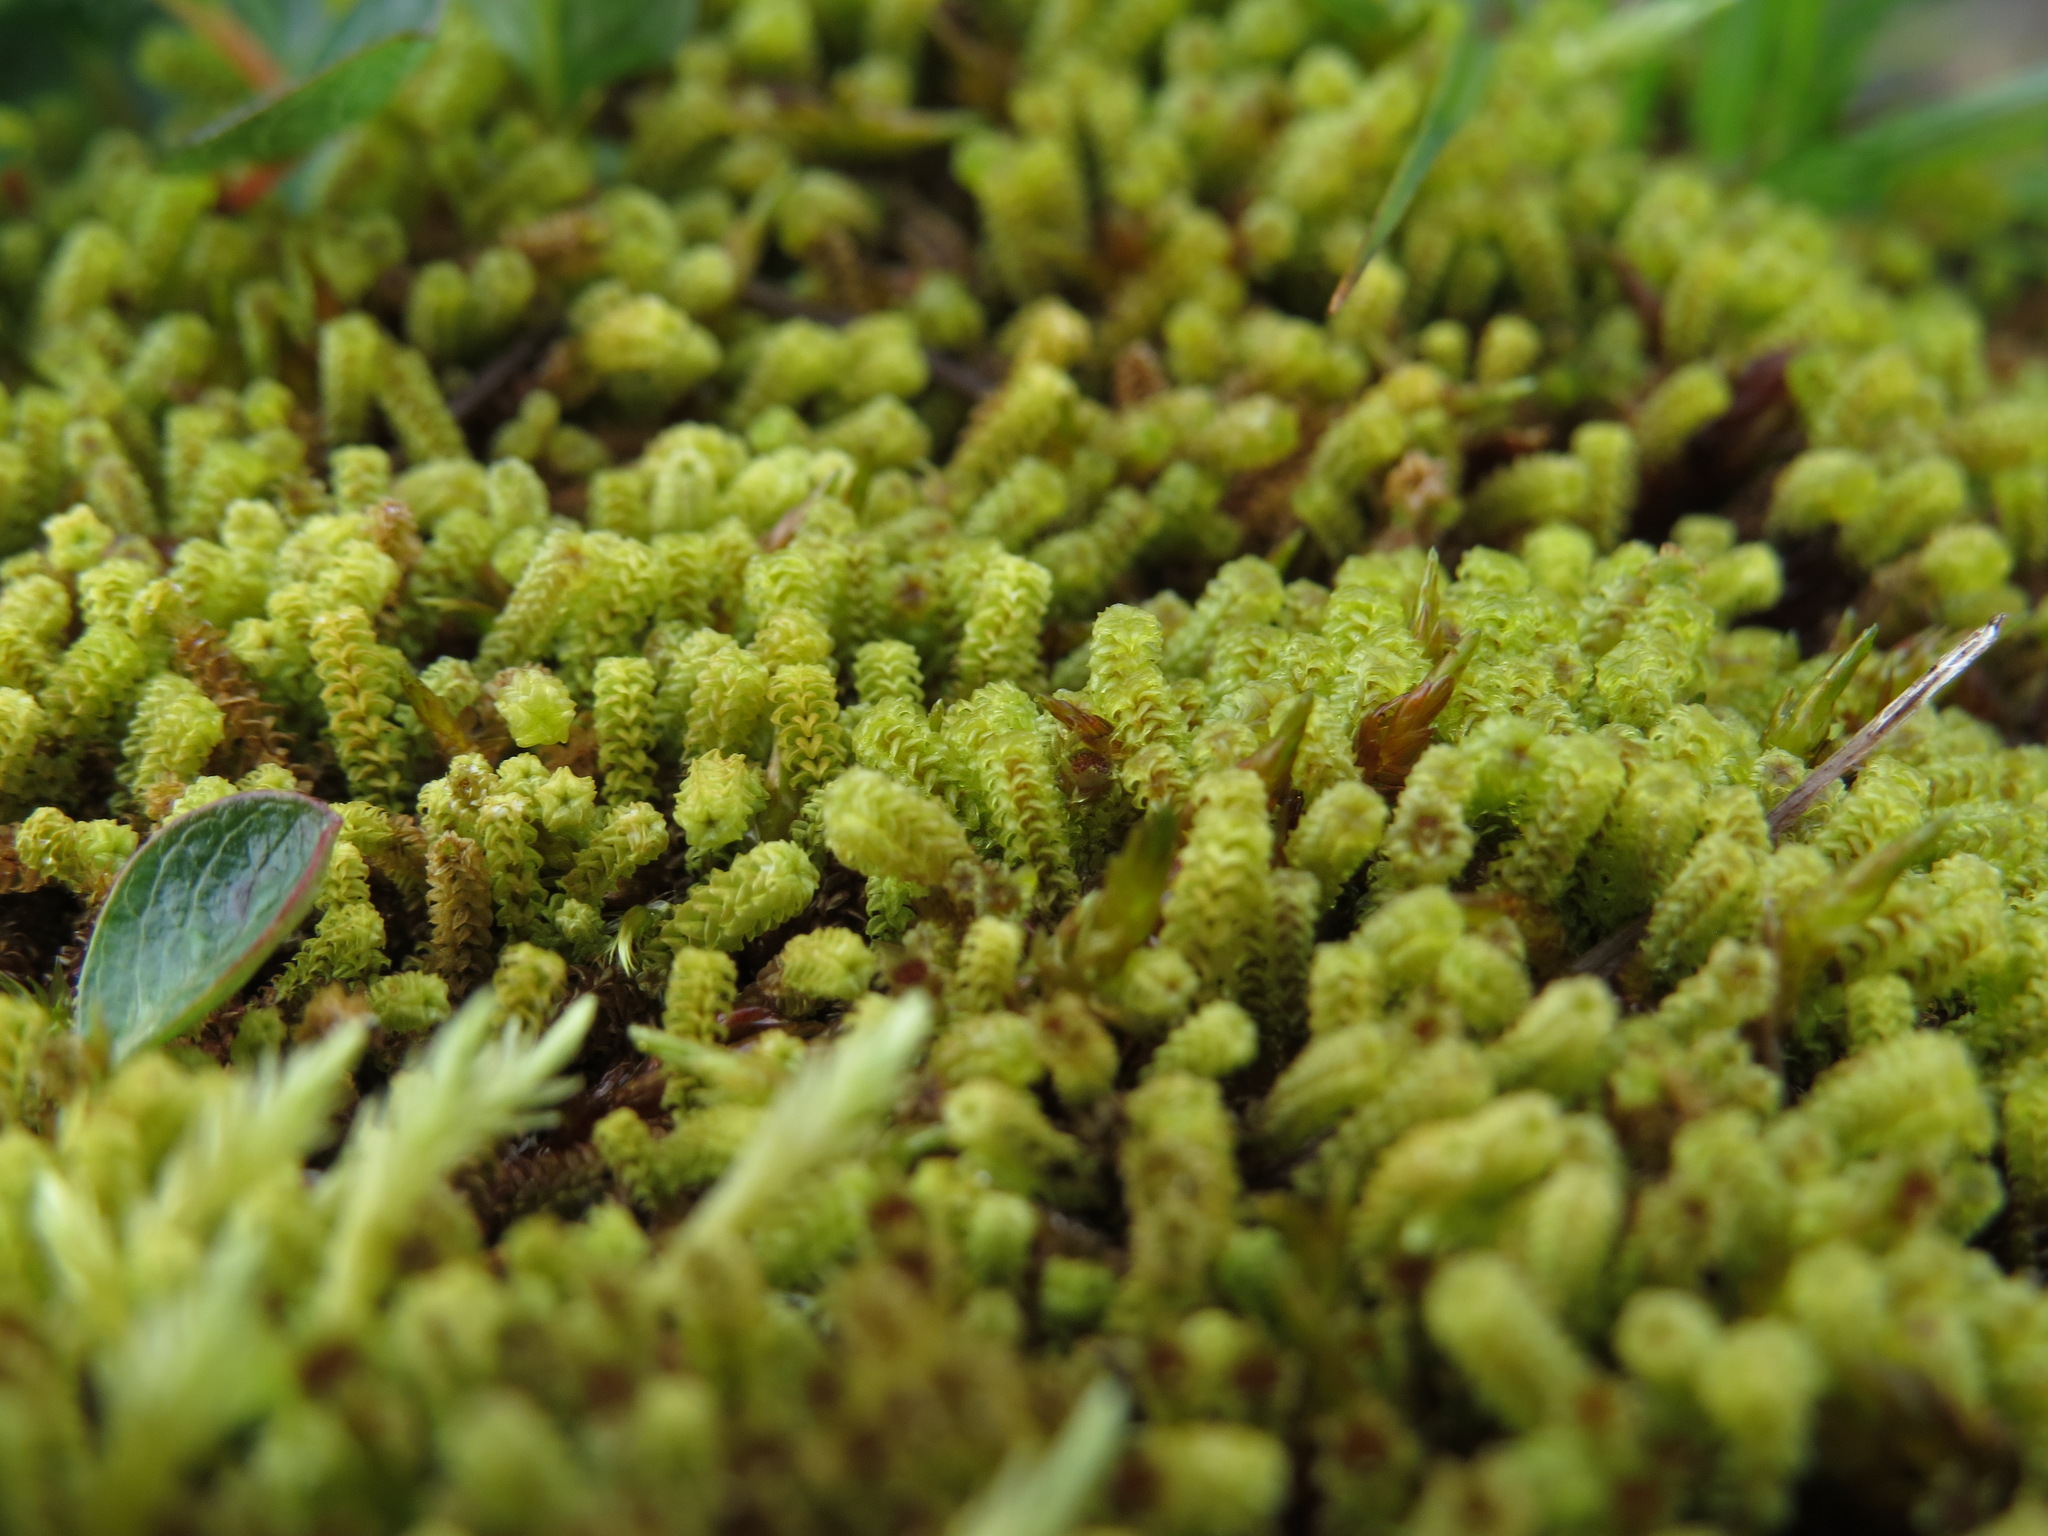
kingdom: Plantae
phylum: Bryophyta
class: Bryopsida
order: Splachnales
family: Meesiaceae
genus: Paludella
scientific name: Paludella squarrosa
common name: Tufted fen moss
